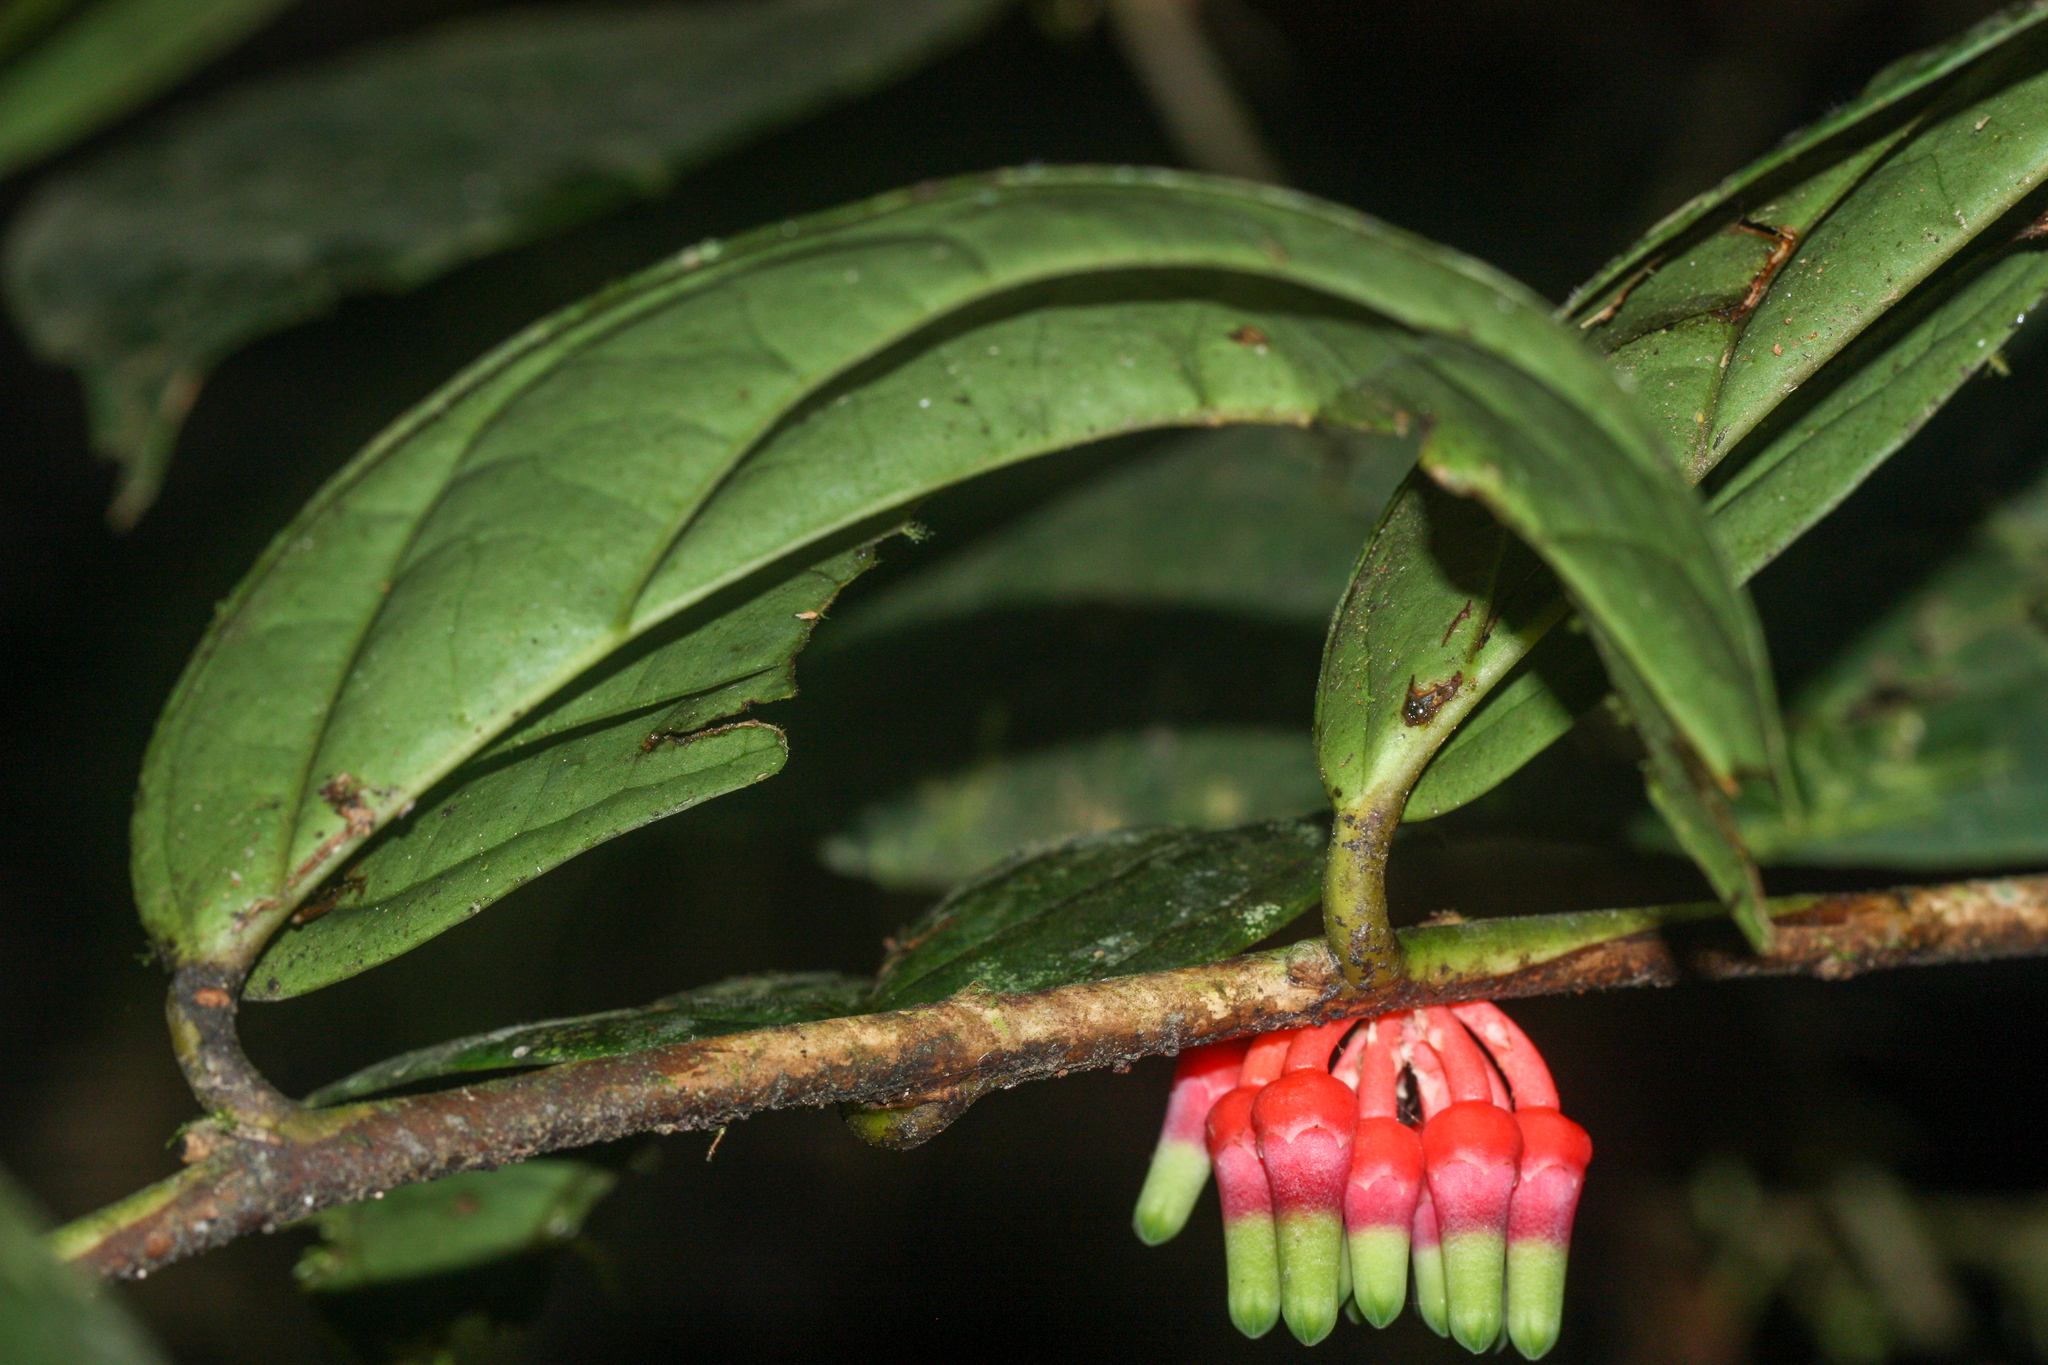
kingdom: Plantae
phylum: Tracheophyta
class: Magnoliopsida
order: Ericales
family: Ericaceae
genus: Psammisia
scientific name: Psammisia sodiroi
